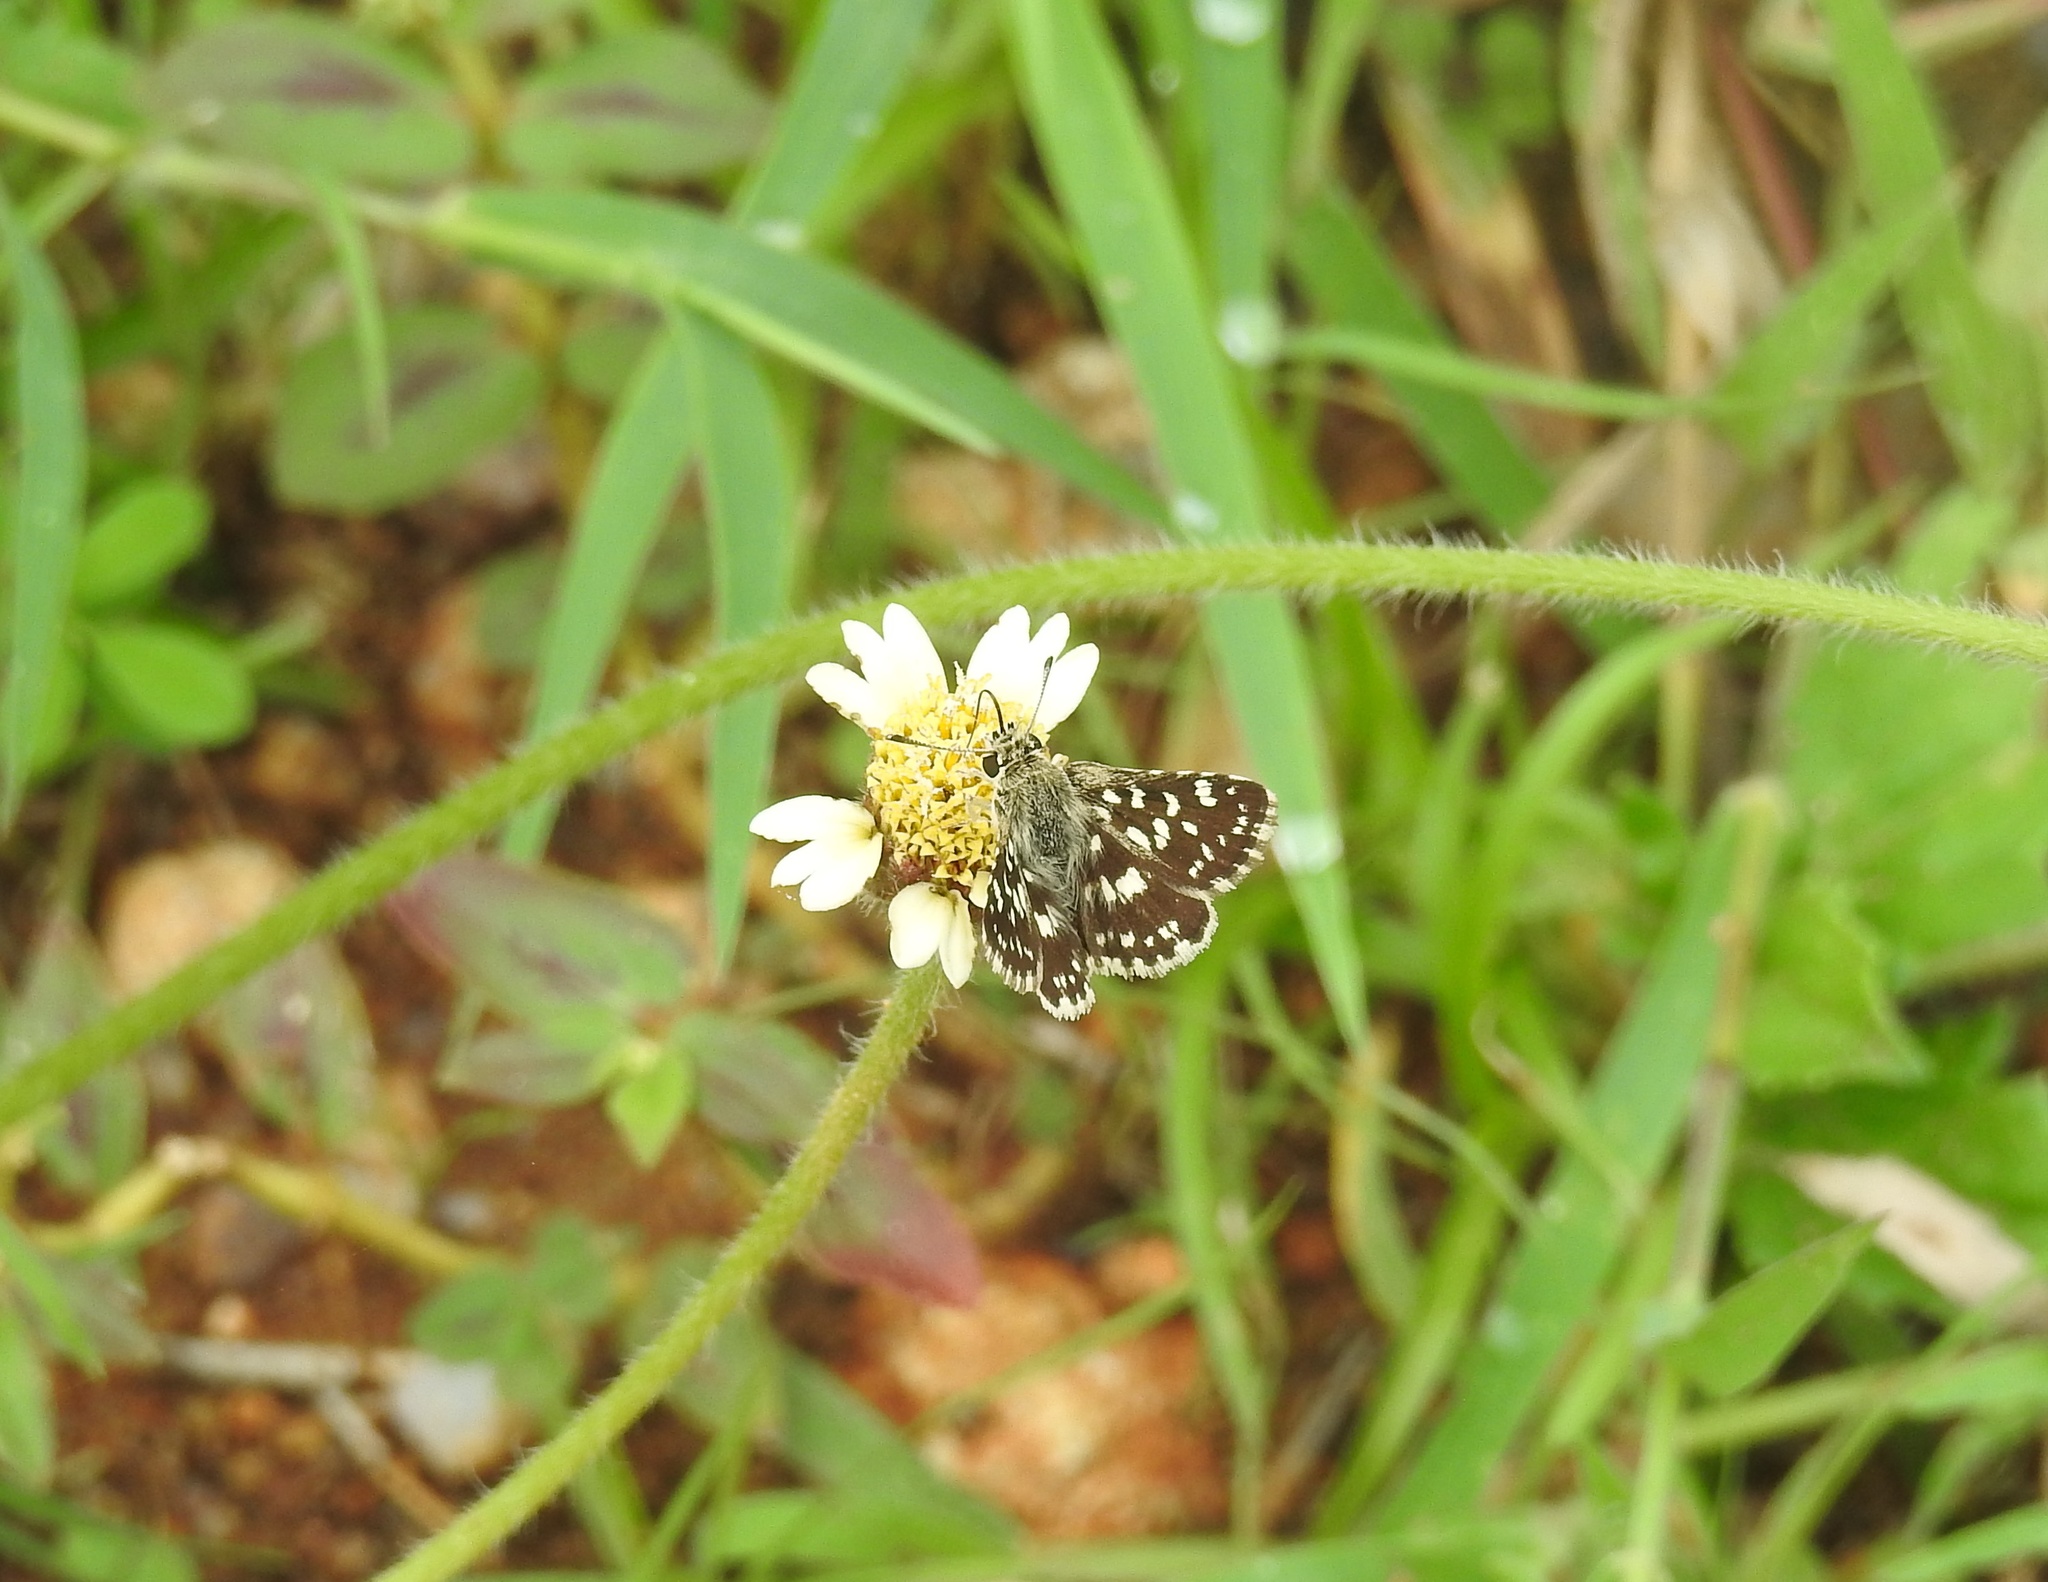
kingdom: Animalia
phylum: Arthropoda
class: Insecta
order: Lepidoptera
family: Hesperiidae
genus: Spialia
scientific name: Spialia galba
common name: Indian skipper
